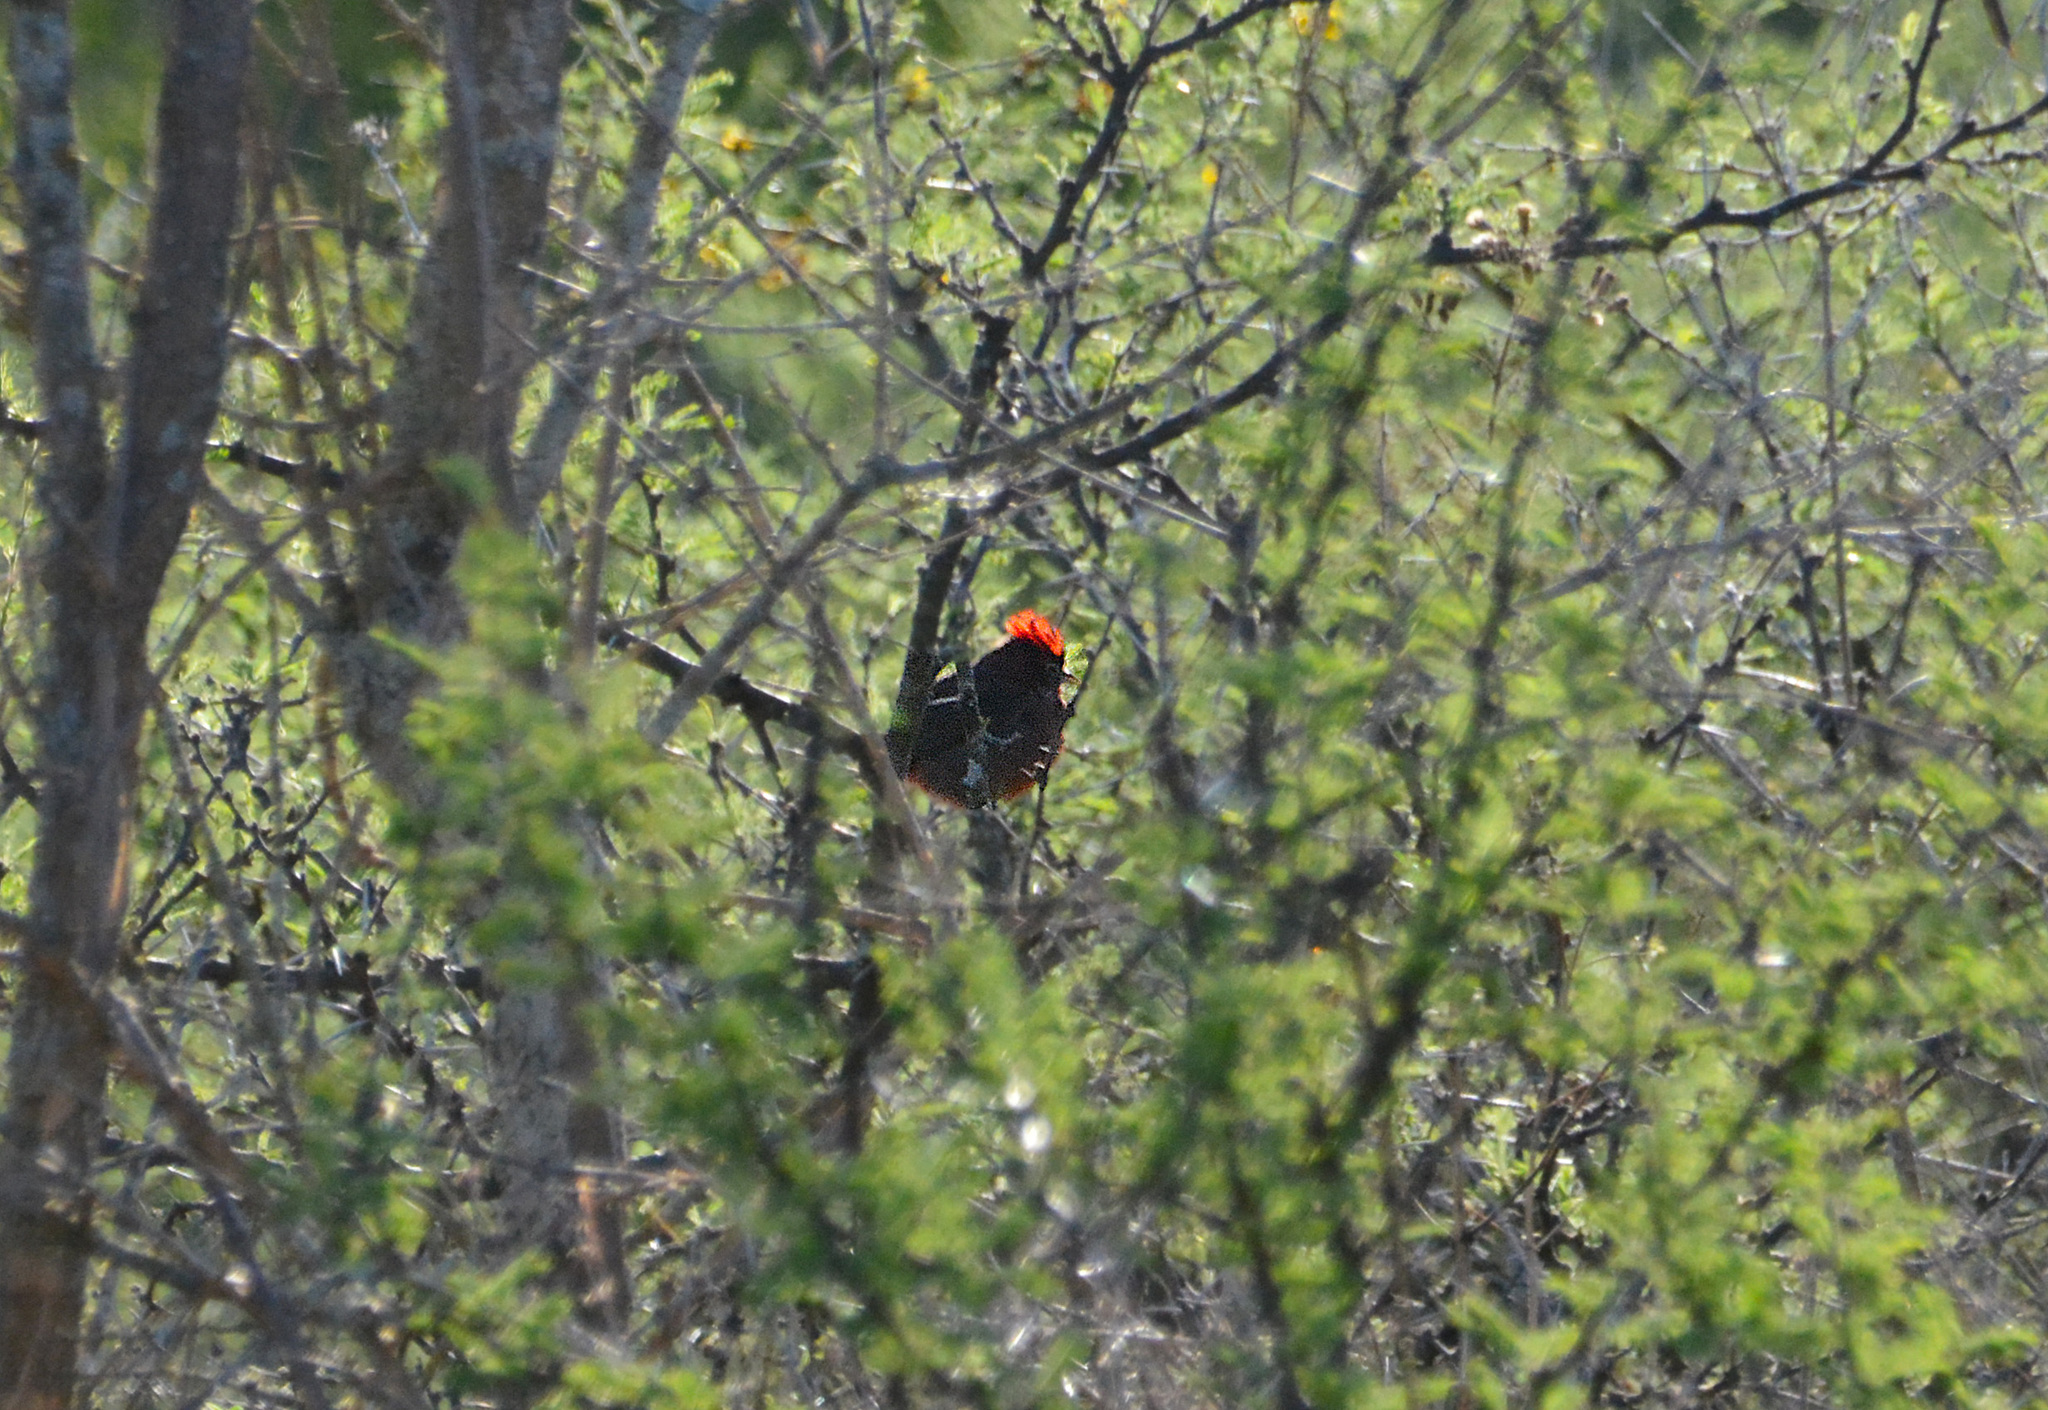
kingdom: Animalia
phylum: Chordata
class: Aves
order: Passeriformes
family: Thraupidae
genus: Coryphospingus
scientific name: Coryphospingus cucullatus
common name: Red pileated finch
